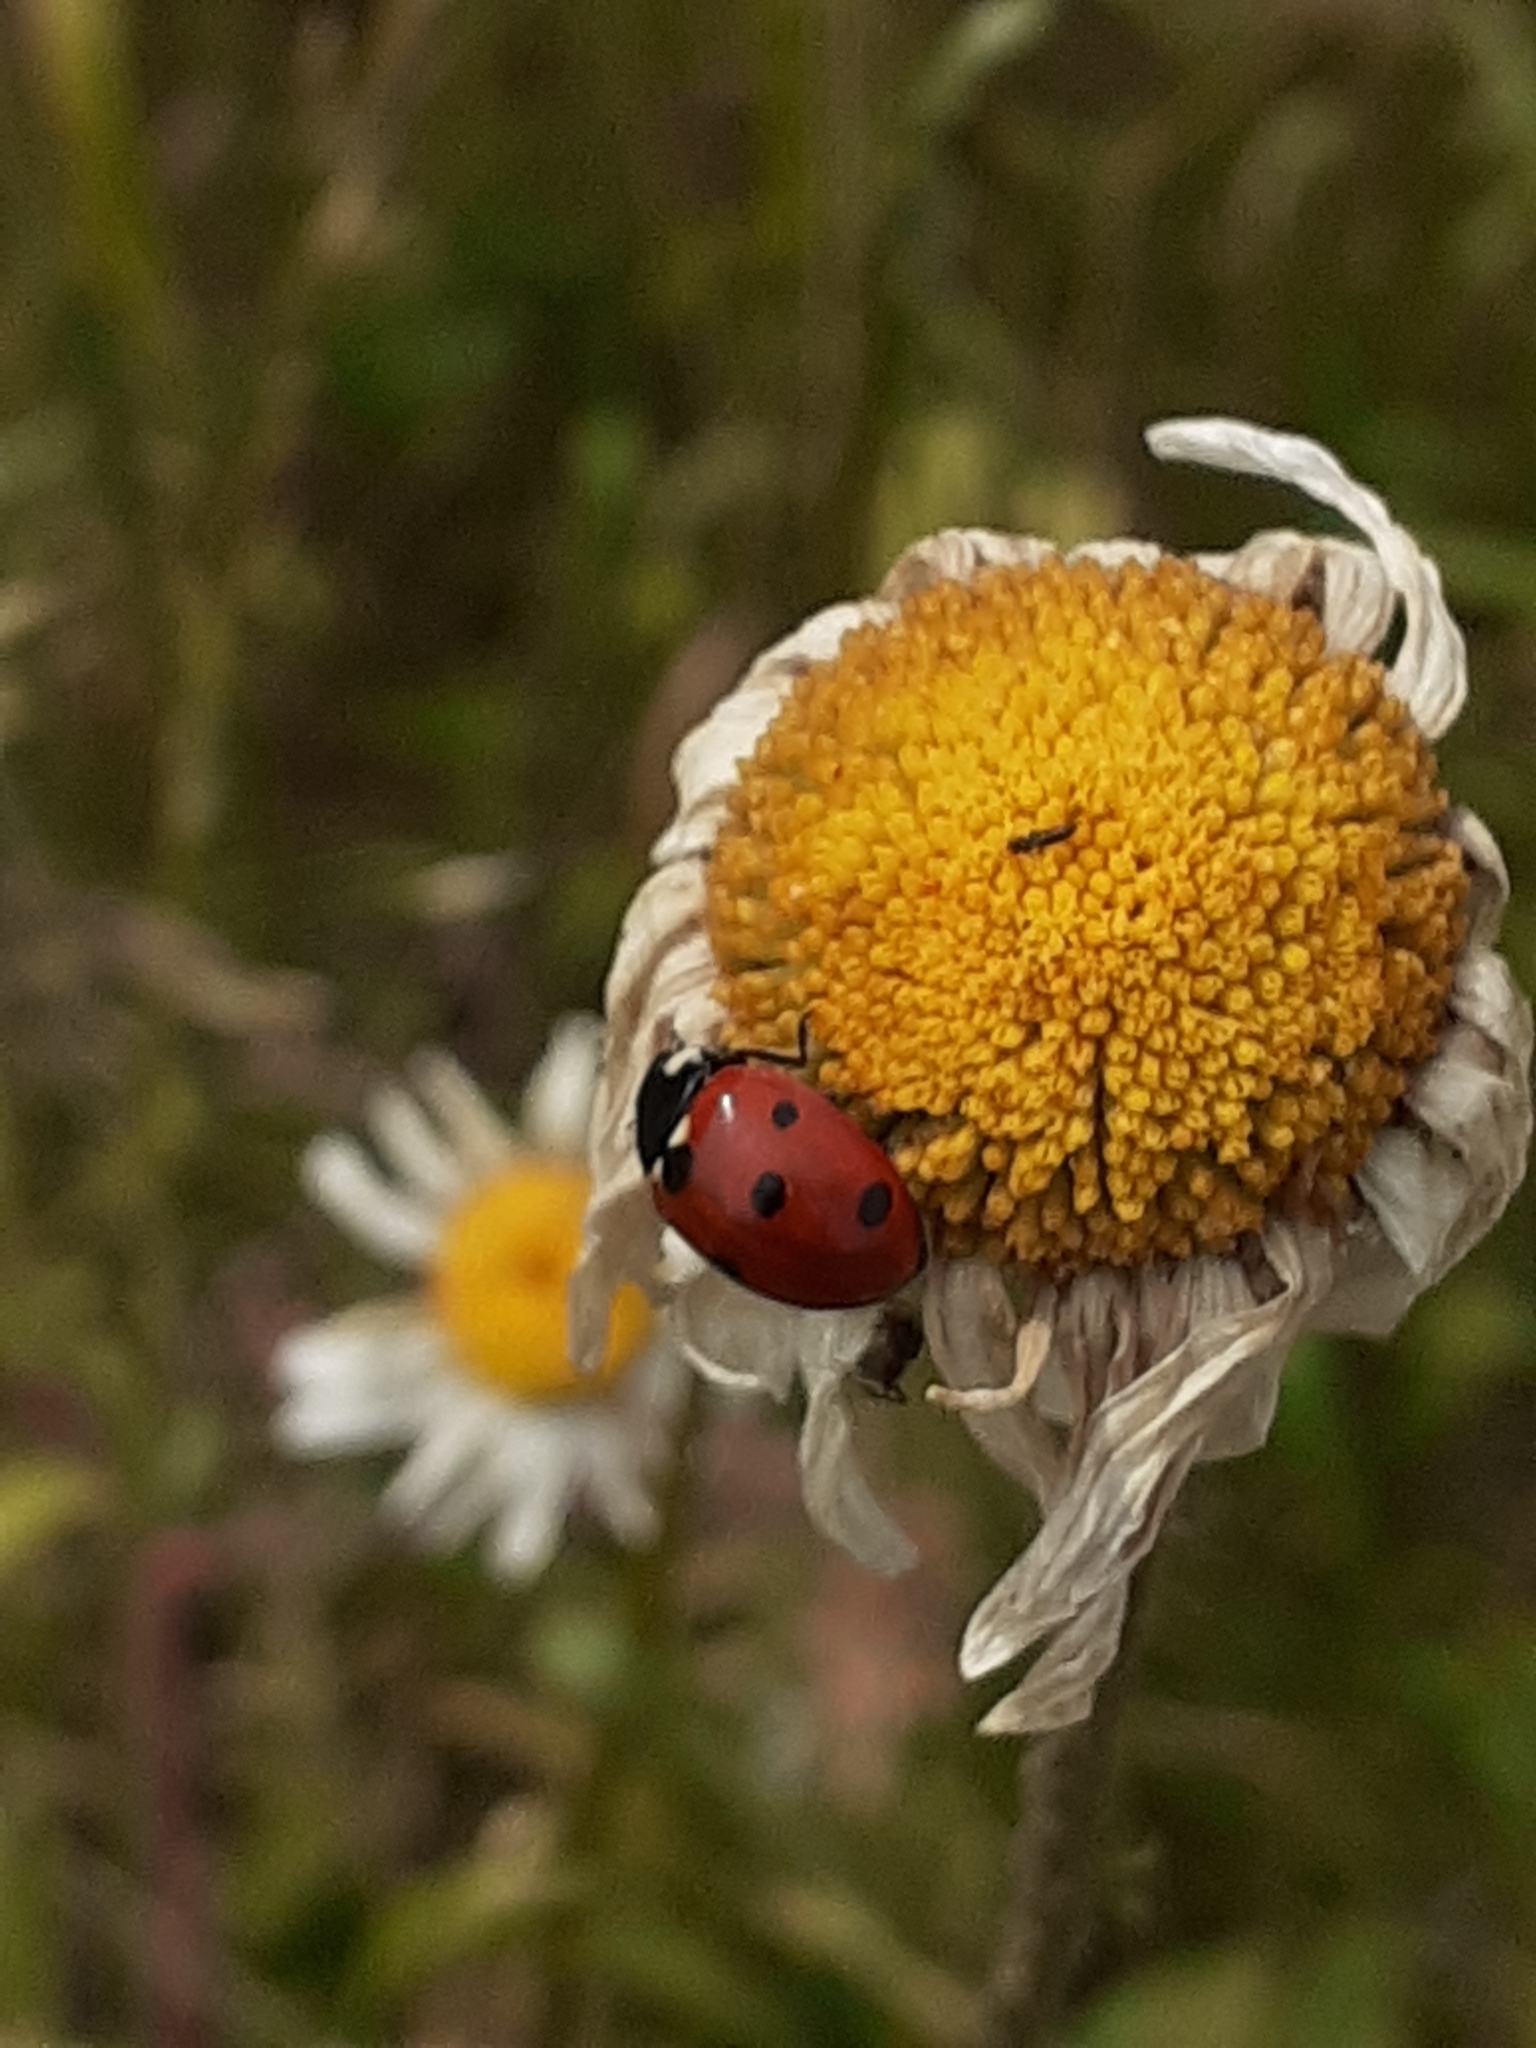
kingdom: Animalia
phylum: Arthropoda
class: Insecta
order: Coleoptera
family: Coccinellidae
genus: Coccinella
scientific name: Coccinella septempunctata
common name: Sevenspotted lady beetle
